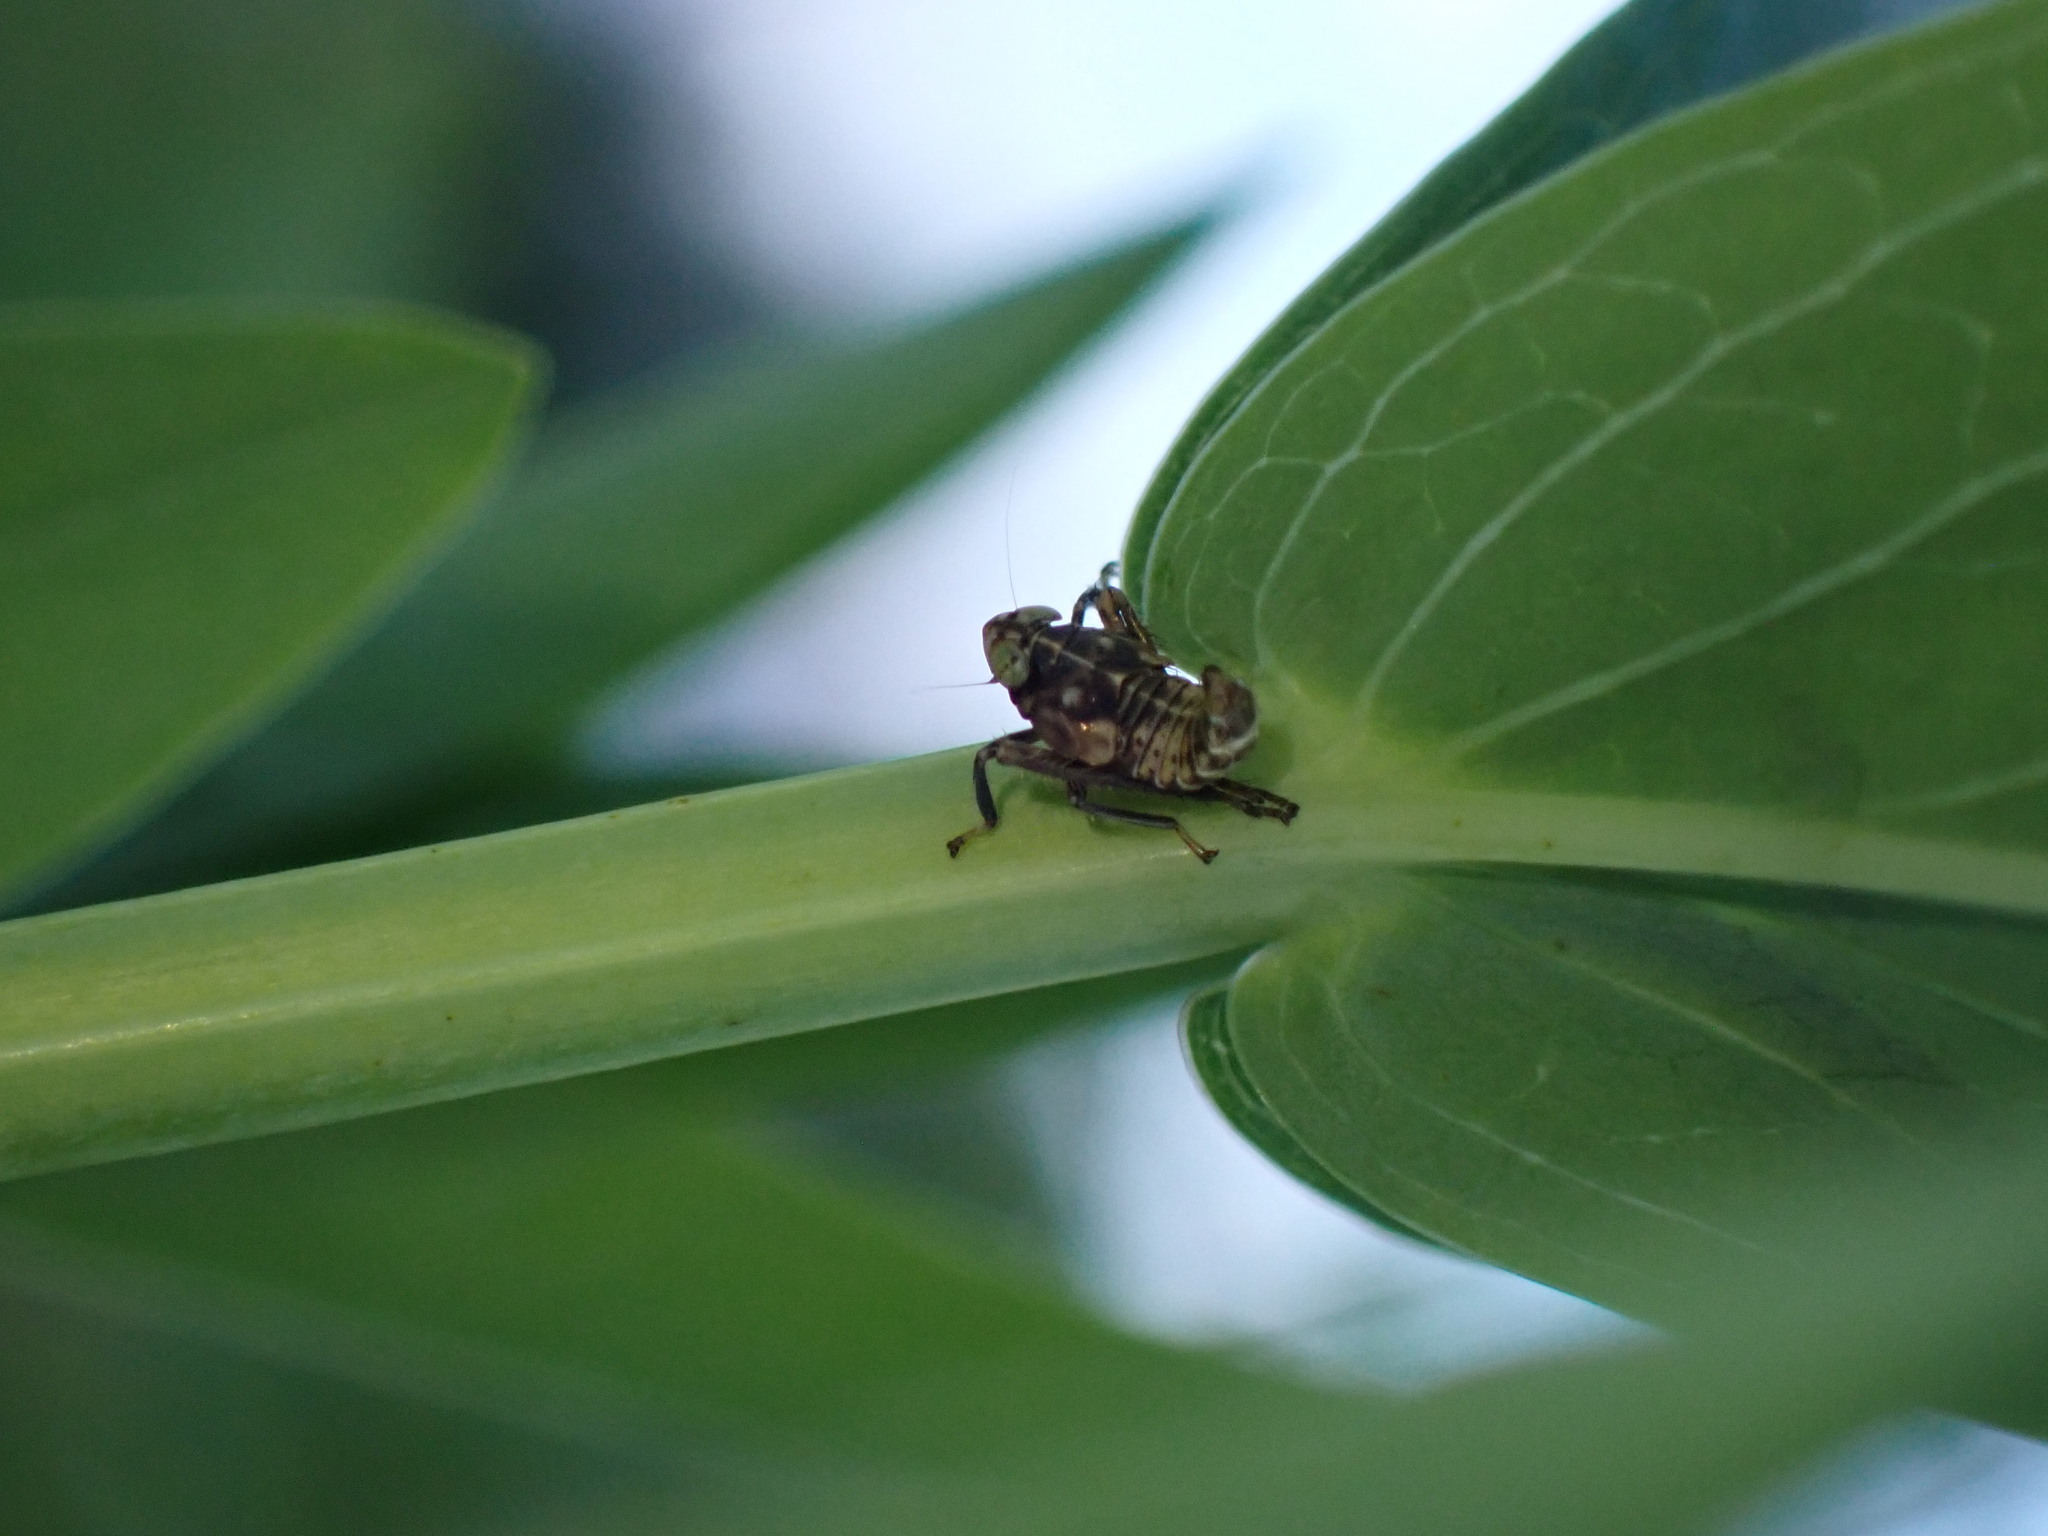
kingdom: Animalia
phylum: Arthropoda
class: Insecta
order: Hemiptera
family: Cicadellidae
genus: Jikradia
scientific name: Jikradia olitoria
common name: Coppery leafhopper
